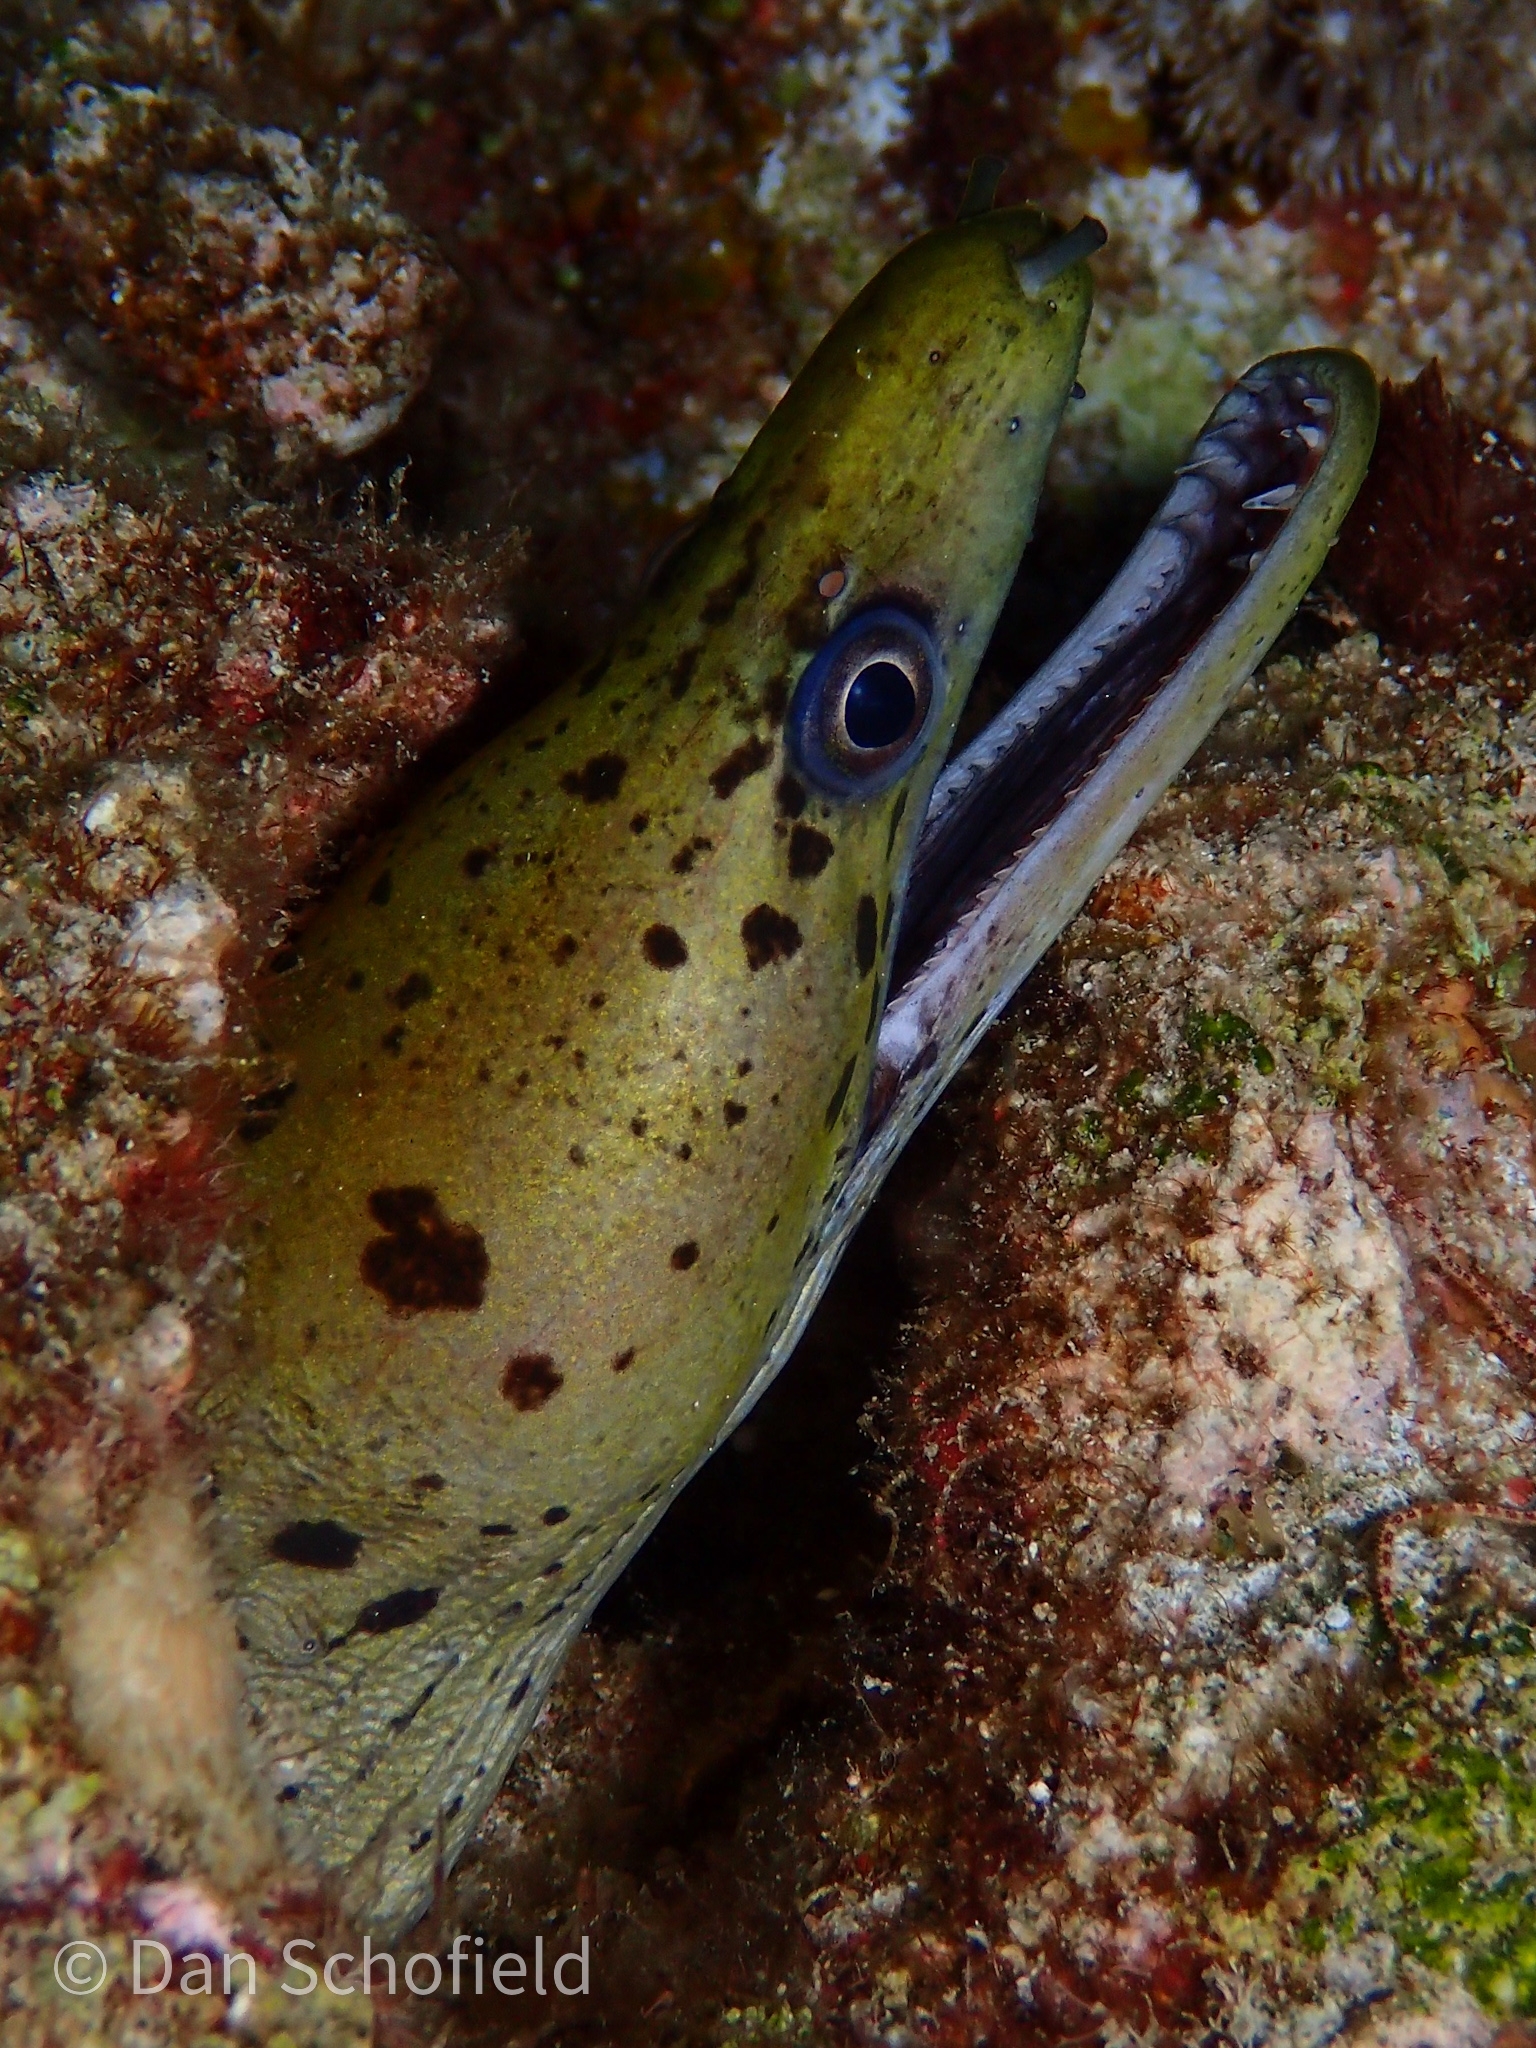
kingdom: Animalia
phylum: Chordata
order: Anguilliformes
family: Muraenidae
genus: Gymnothorax
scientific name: Gymnothorax fimbriatus
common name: Darkspotted moray
